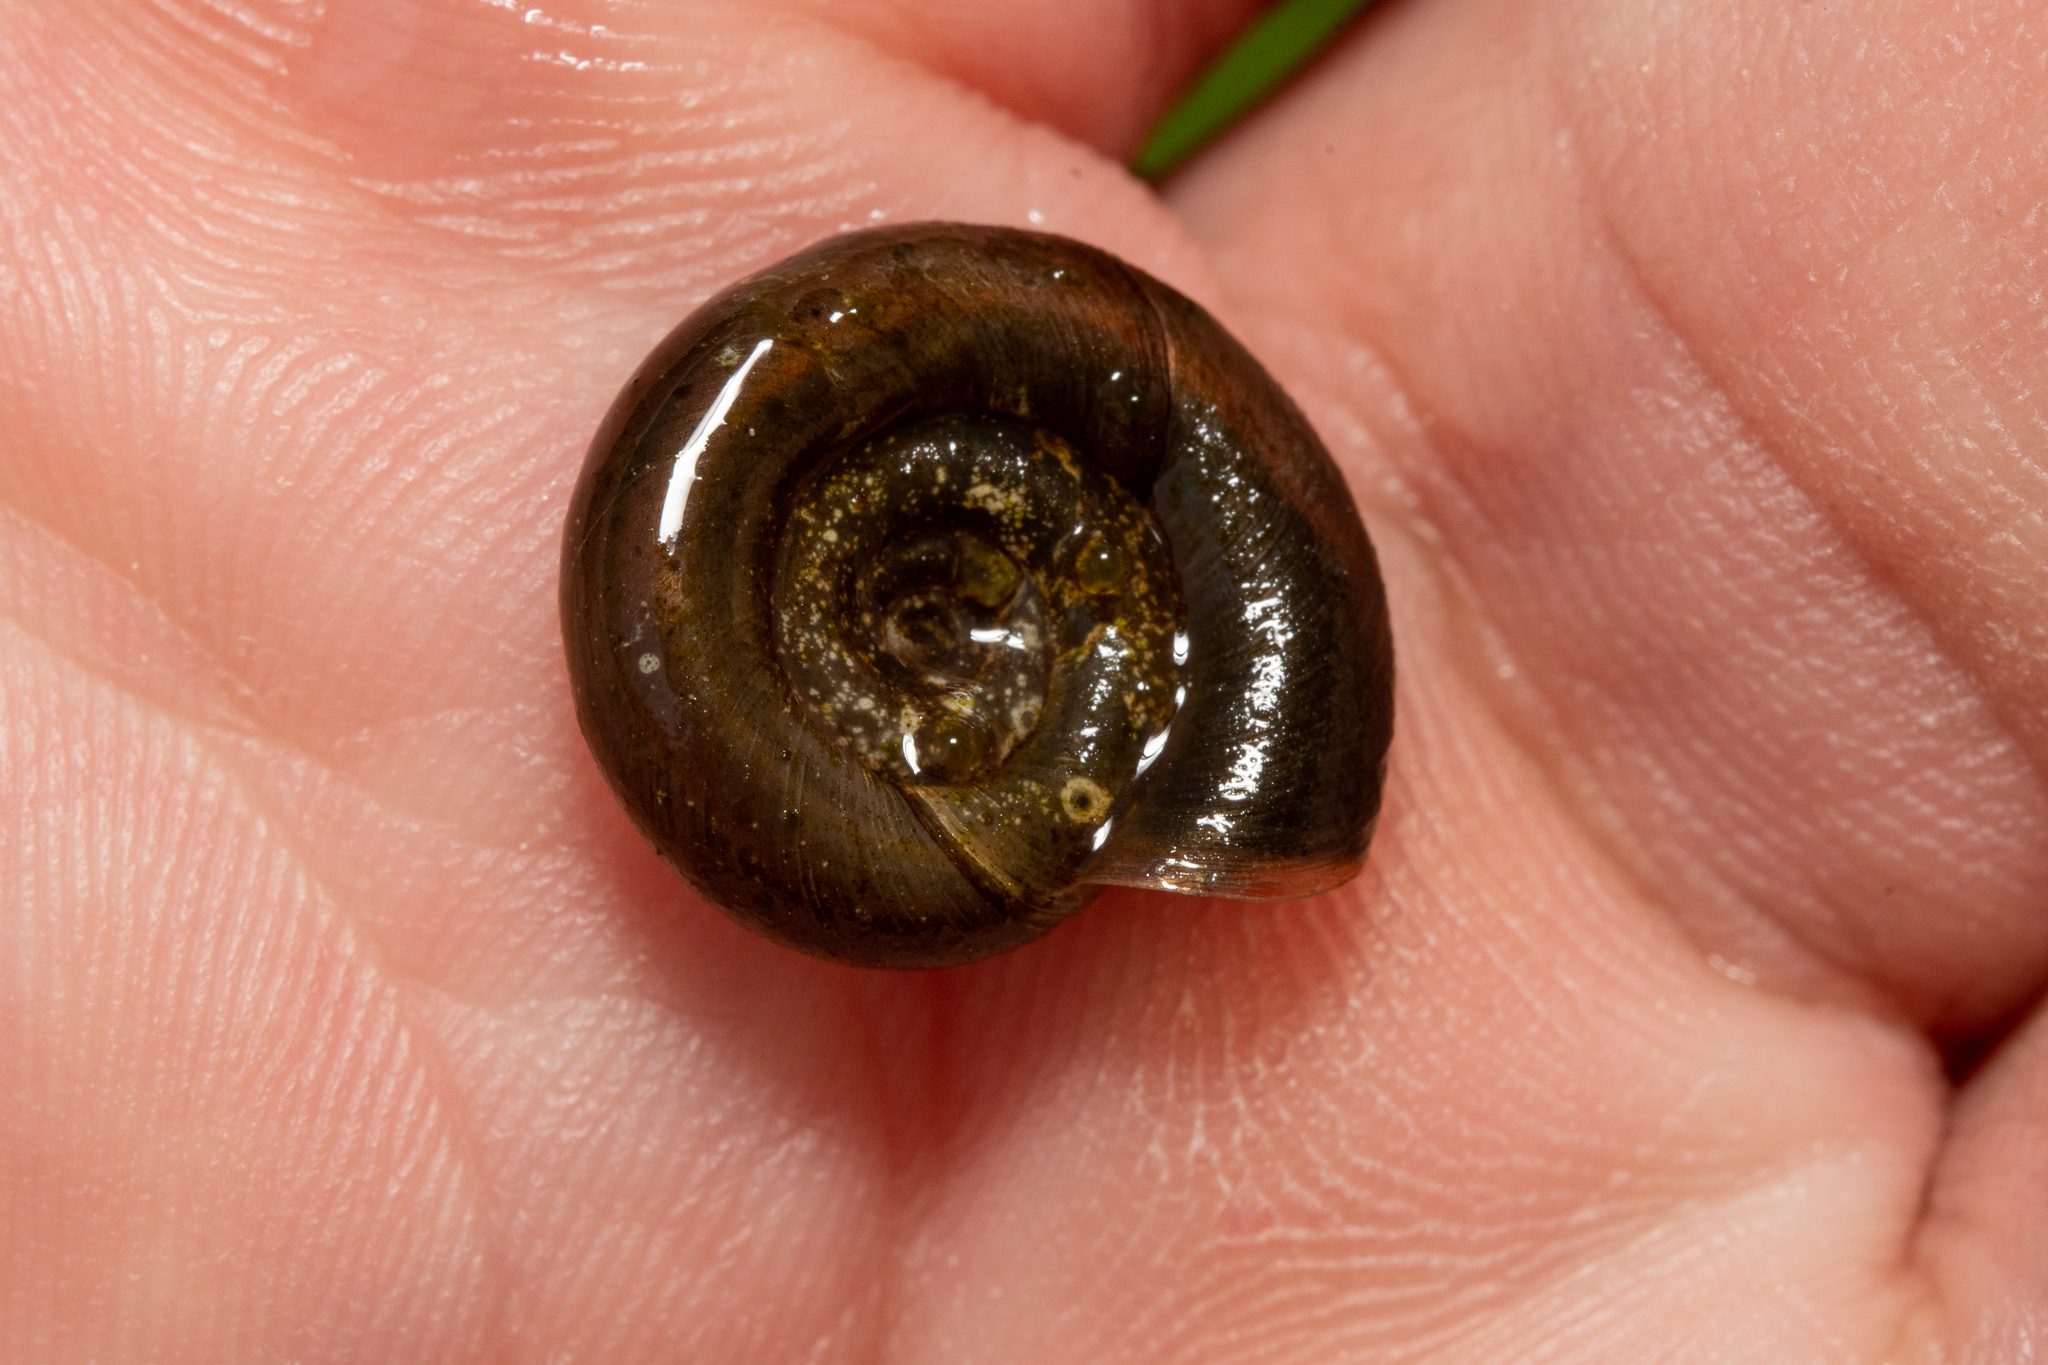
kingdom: Animalia
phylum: Mollusca
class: Gastropoda
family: Planorbidae
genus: Planorbis
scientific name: Planorbis planorbis
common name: Margined ramshorn
